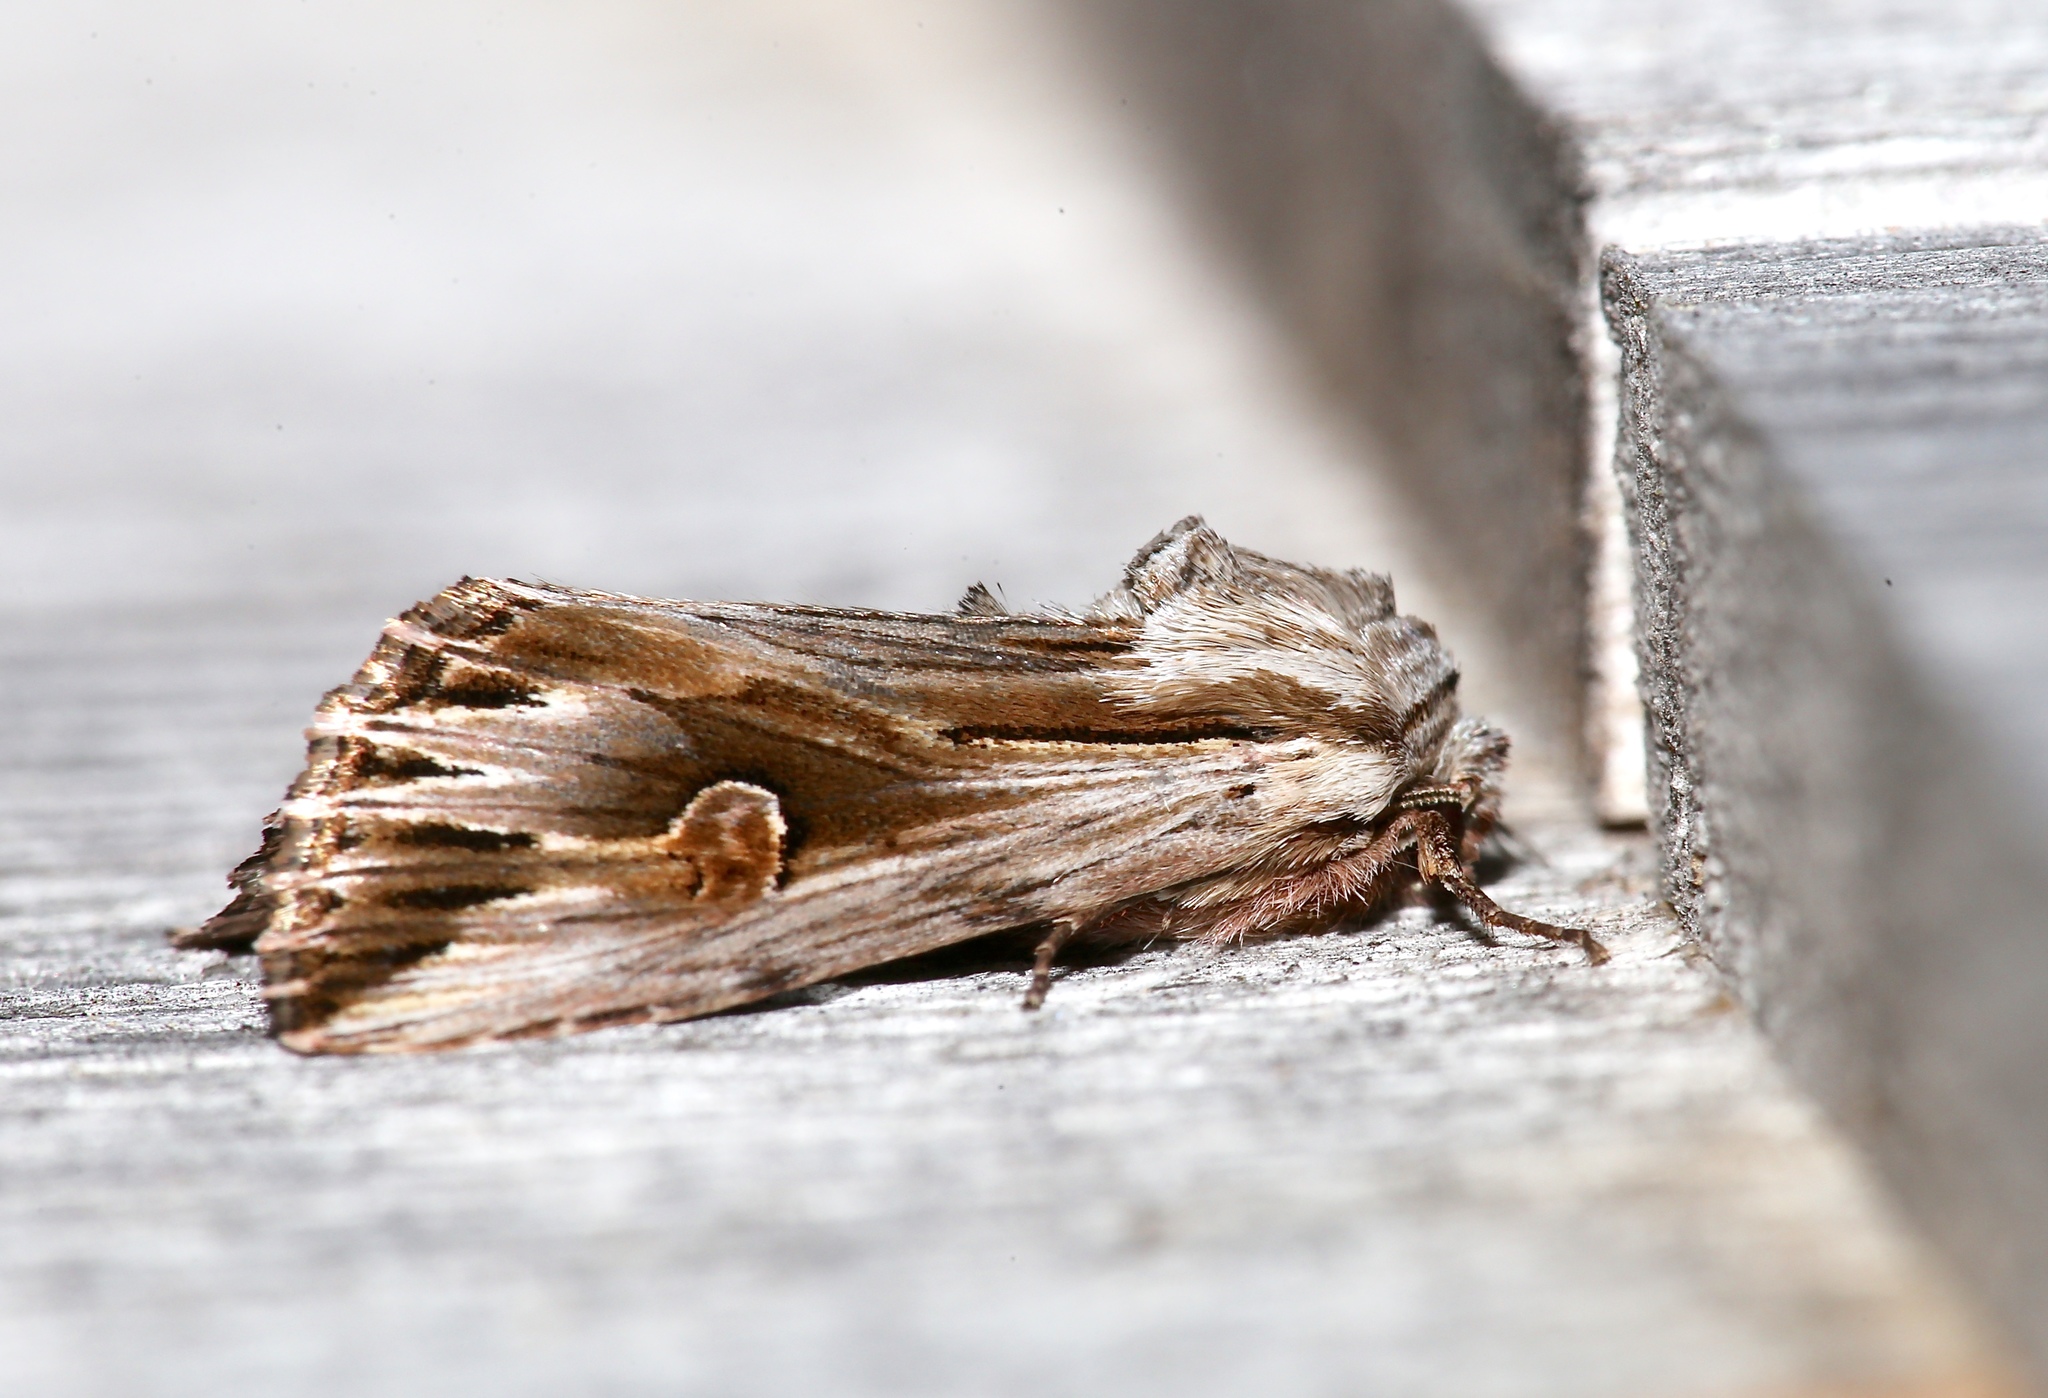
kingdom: Animalia
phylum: Arthropoda
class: Insecta
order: Lepidoptera
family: Noctuidae
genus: Nedra
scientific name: Nedra ramosula
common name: Gray half-spot
